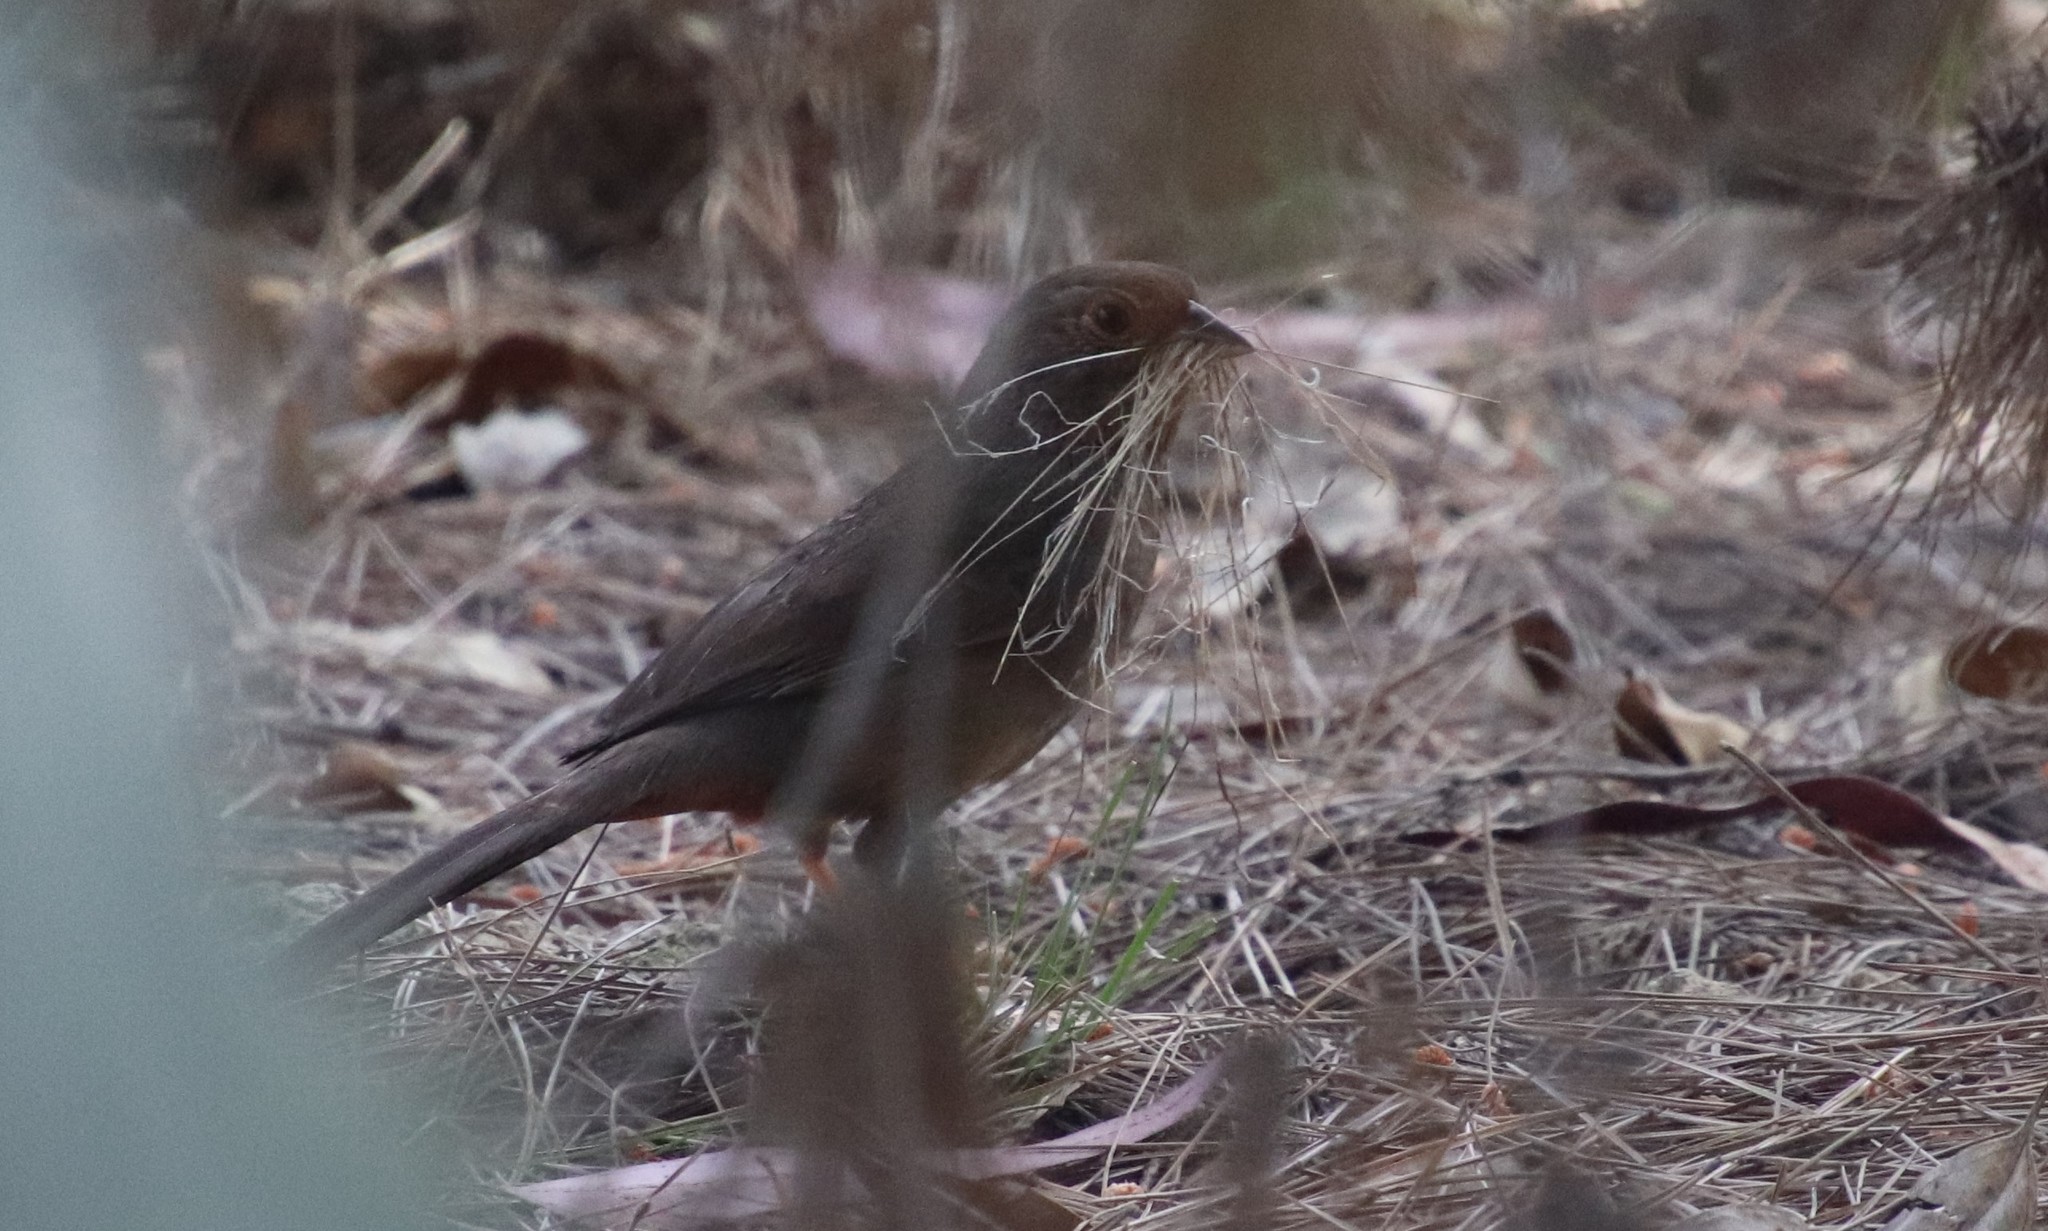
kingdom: Animalia
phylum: Chordata
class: Aves
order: Passeriformes
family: Passerellidae
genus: Melozone
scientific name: Melozone crissalis
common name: California towhee
